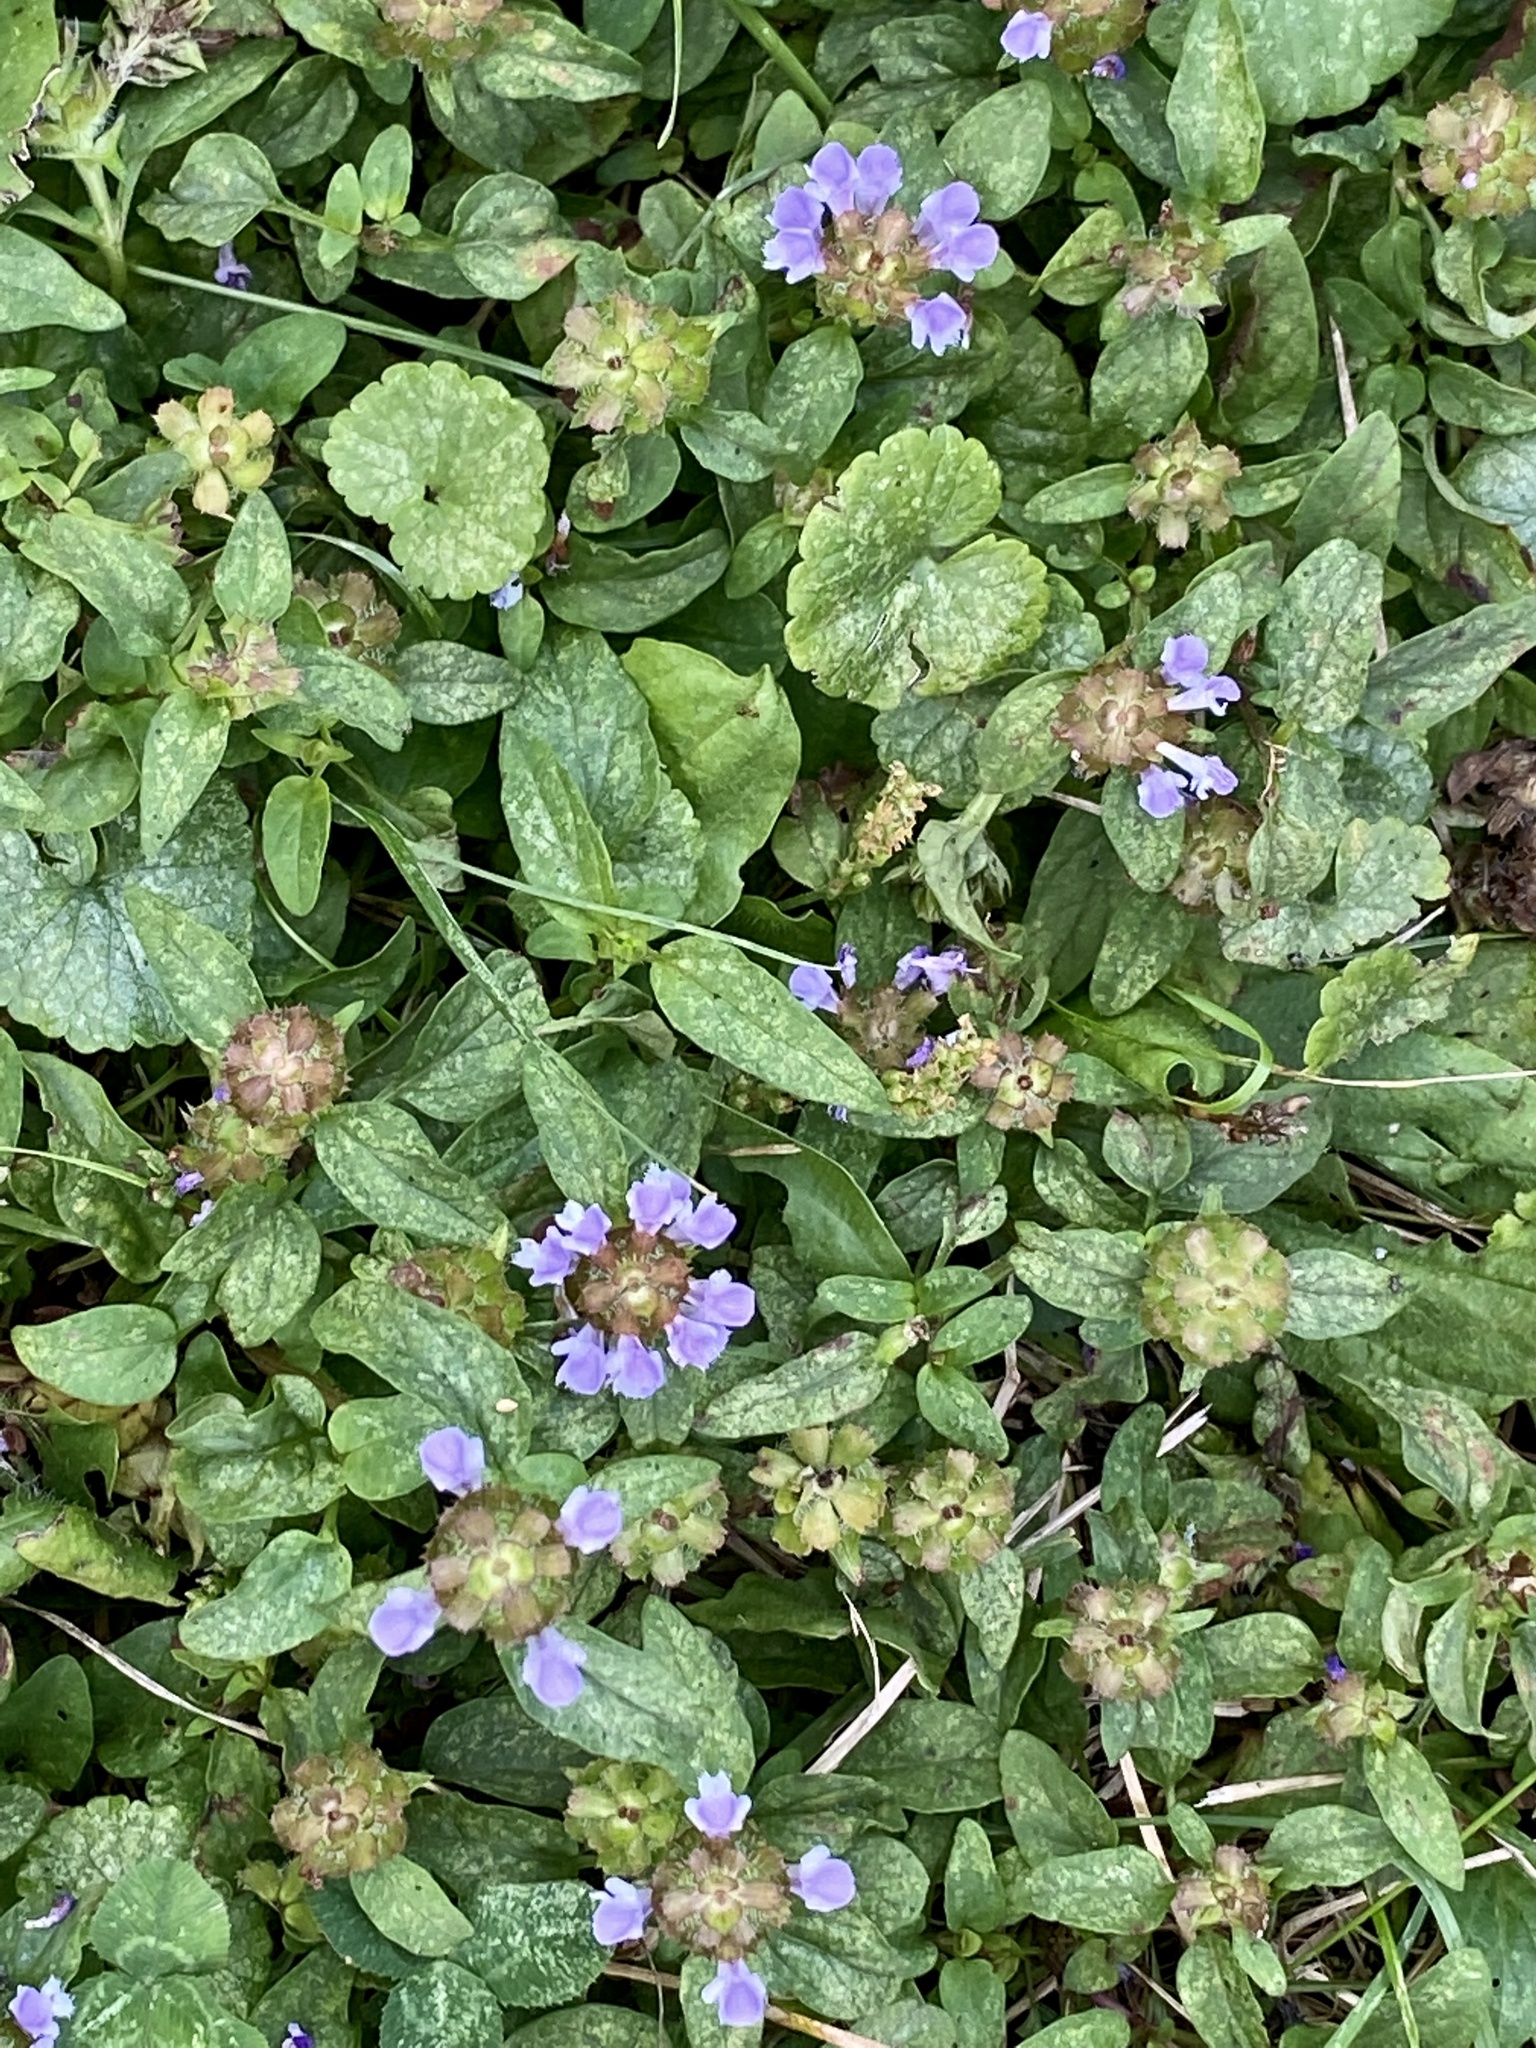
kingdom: Plantae
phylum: Tracheophyta
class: Magnoliopsida
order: Lamiales
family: Lamiaceae
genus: Prunella
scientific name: Prunella vulgaris
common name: Heal-all
